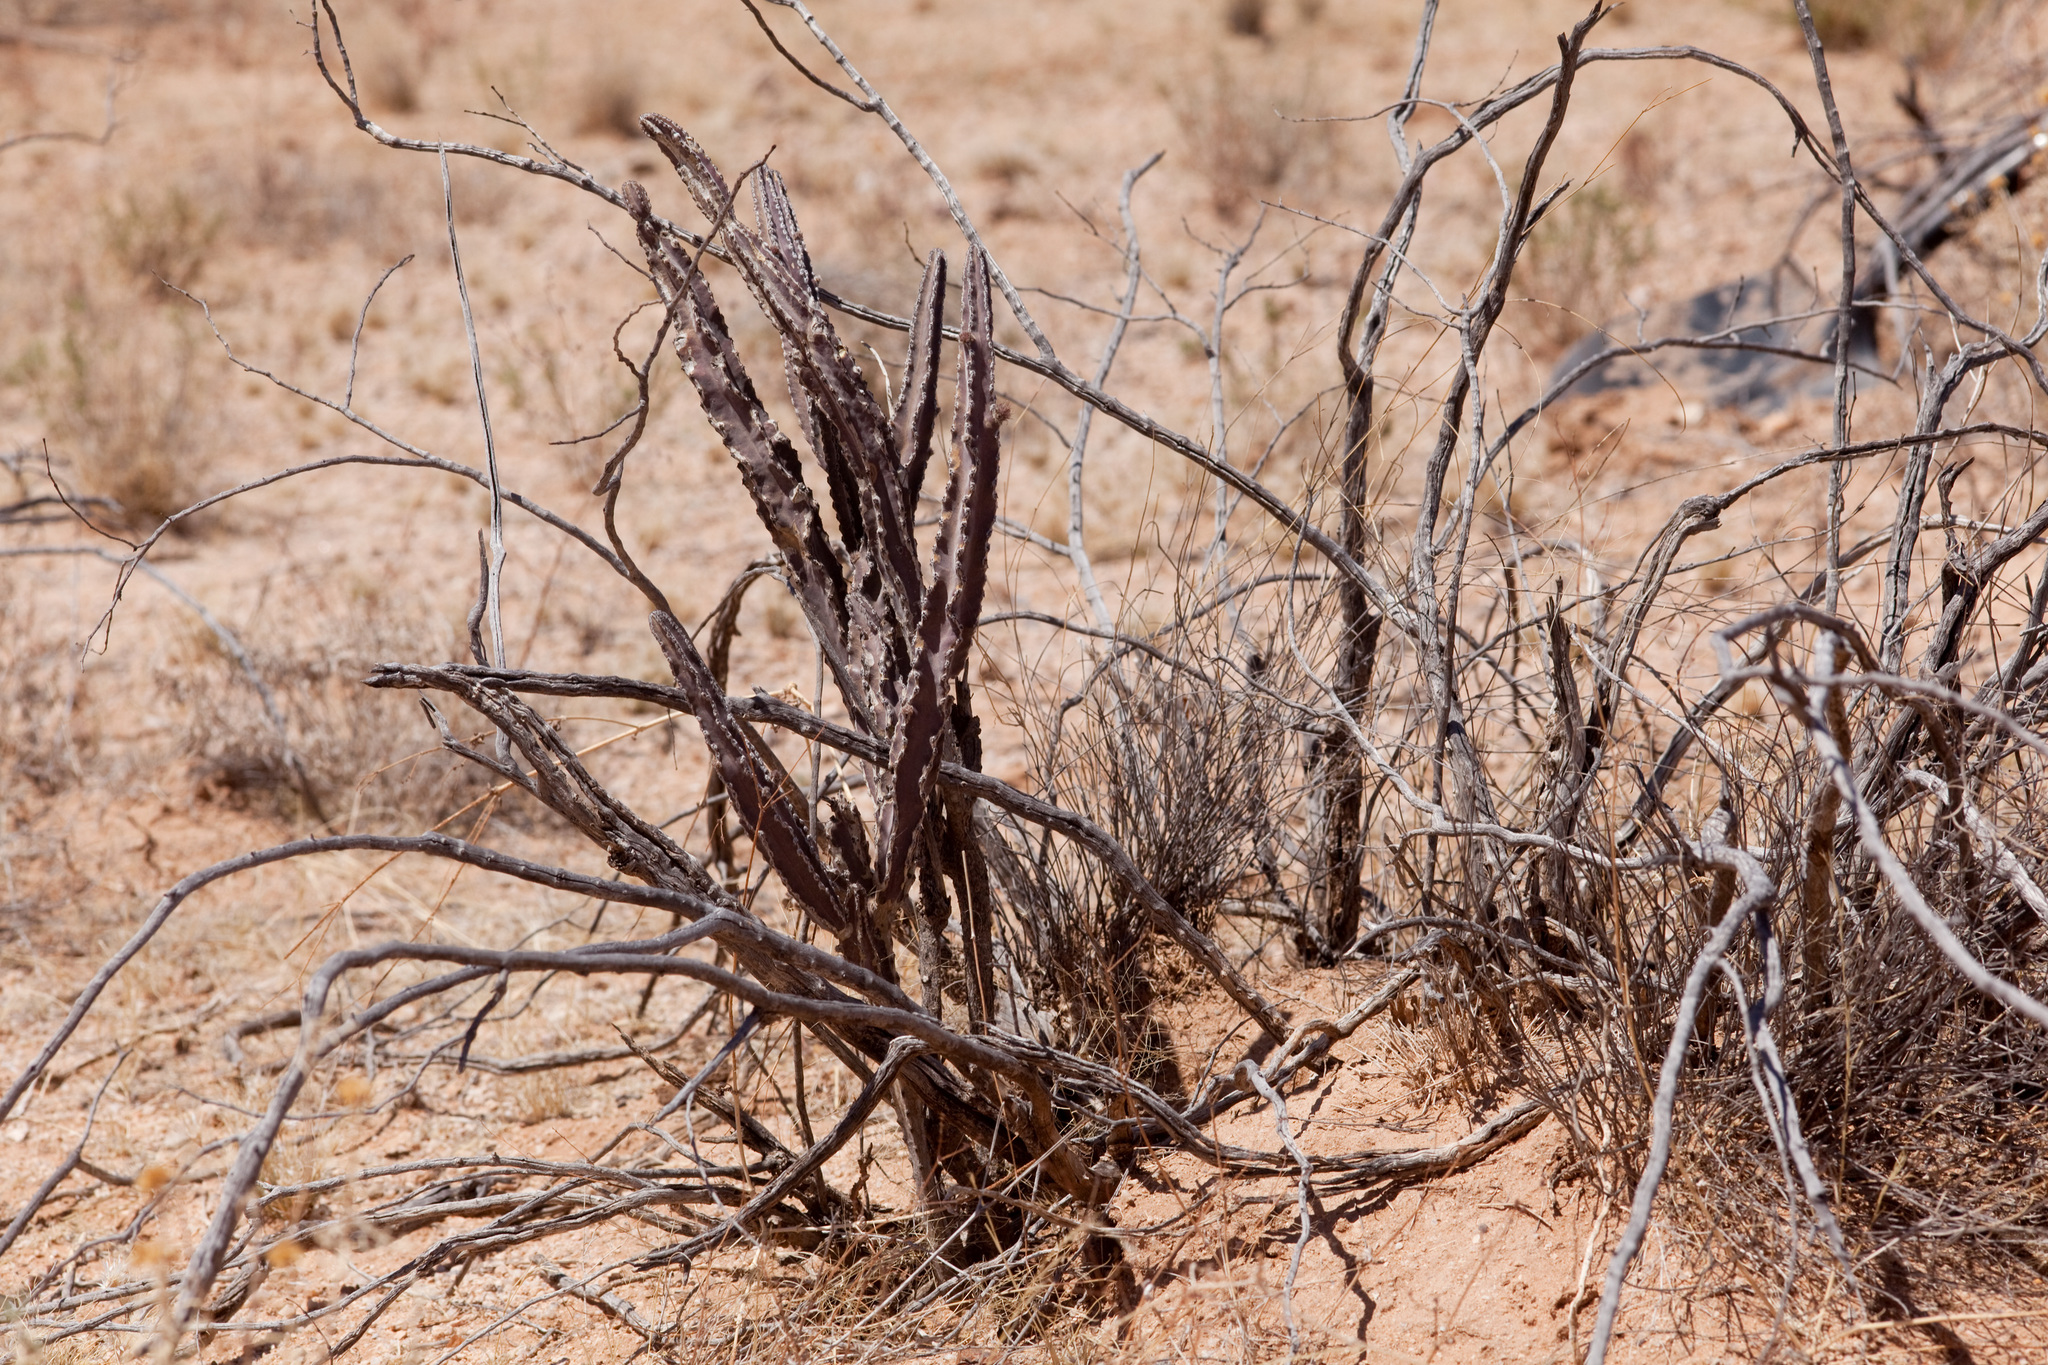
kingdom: Plantae
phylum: Tracheophyta
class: Magnoliopsida
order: Caryophyllales
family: Cactaceae
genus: Peniocereus
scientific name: Peniocereus greggii
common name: Desert night-blooming cereus
